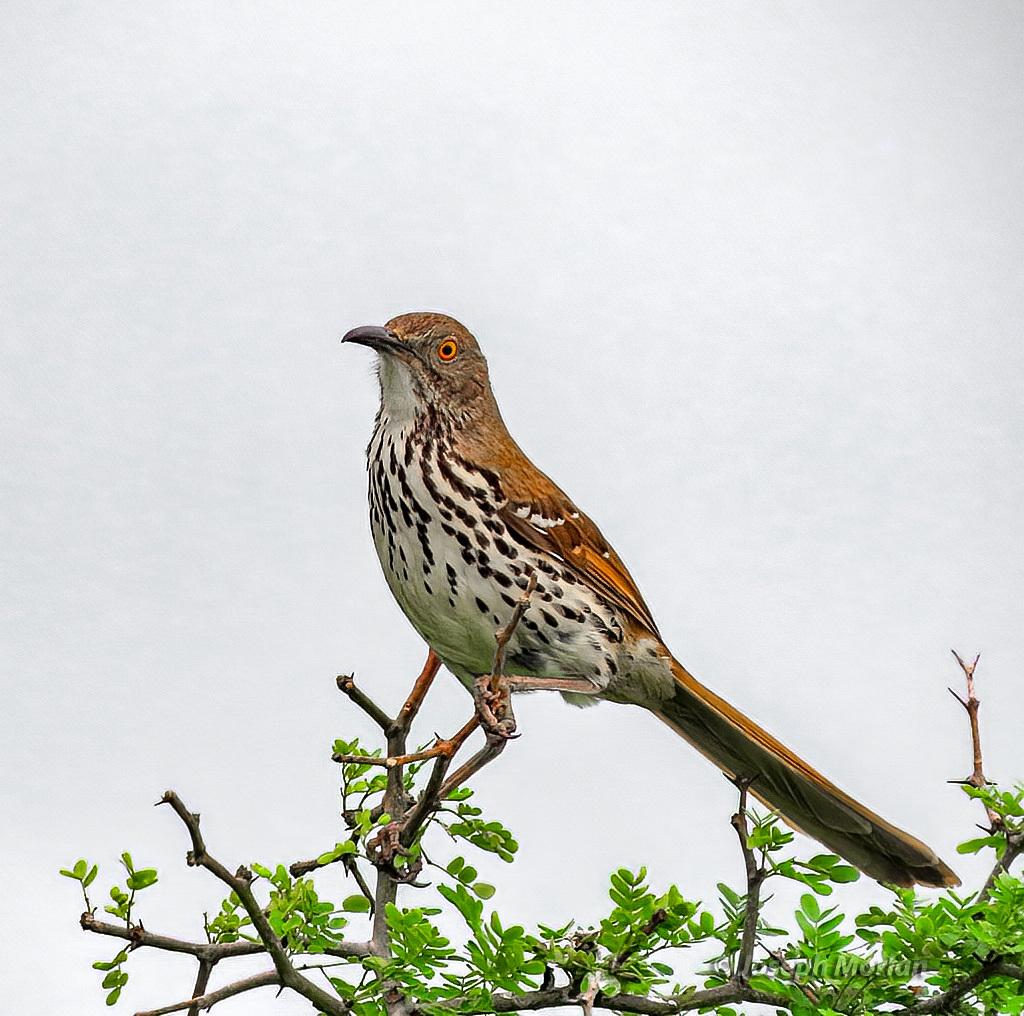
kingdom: Animalia
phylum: Chordata
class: Aves
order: Passeriformes
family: Mimidae
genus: Toxostoma
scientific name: Toxostoma longirostre
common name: Long-billed thrasher
